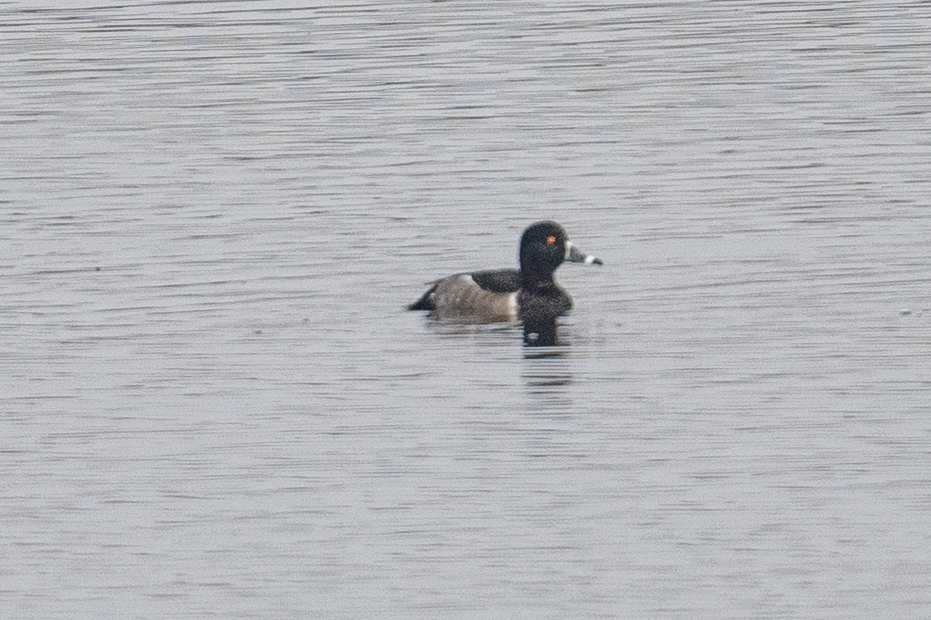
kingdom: Animalia
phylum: Chordata
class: Aves
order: Anseriformes
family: Anatidae
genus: Aythya
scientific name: Aythya collaris
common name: Ring-necked duck
